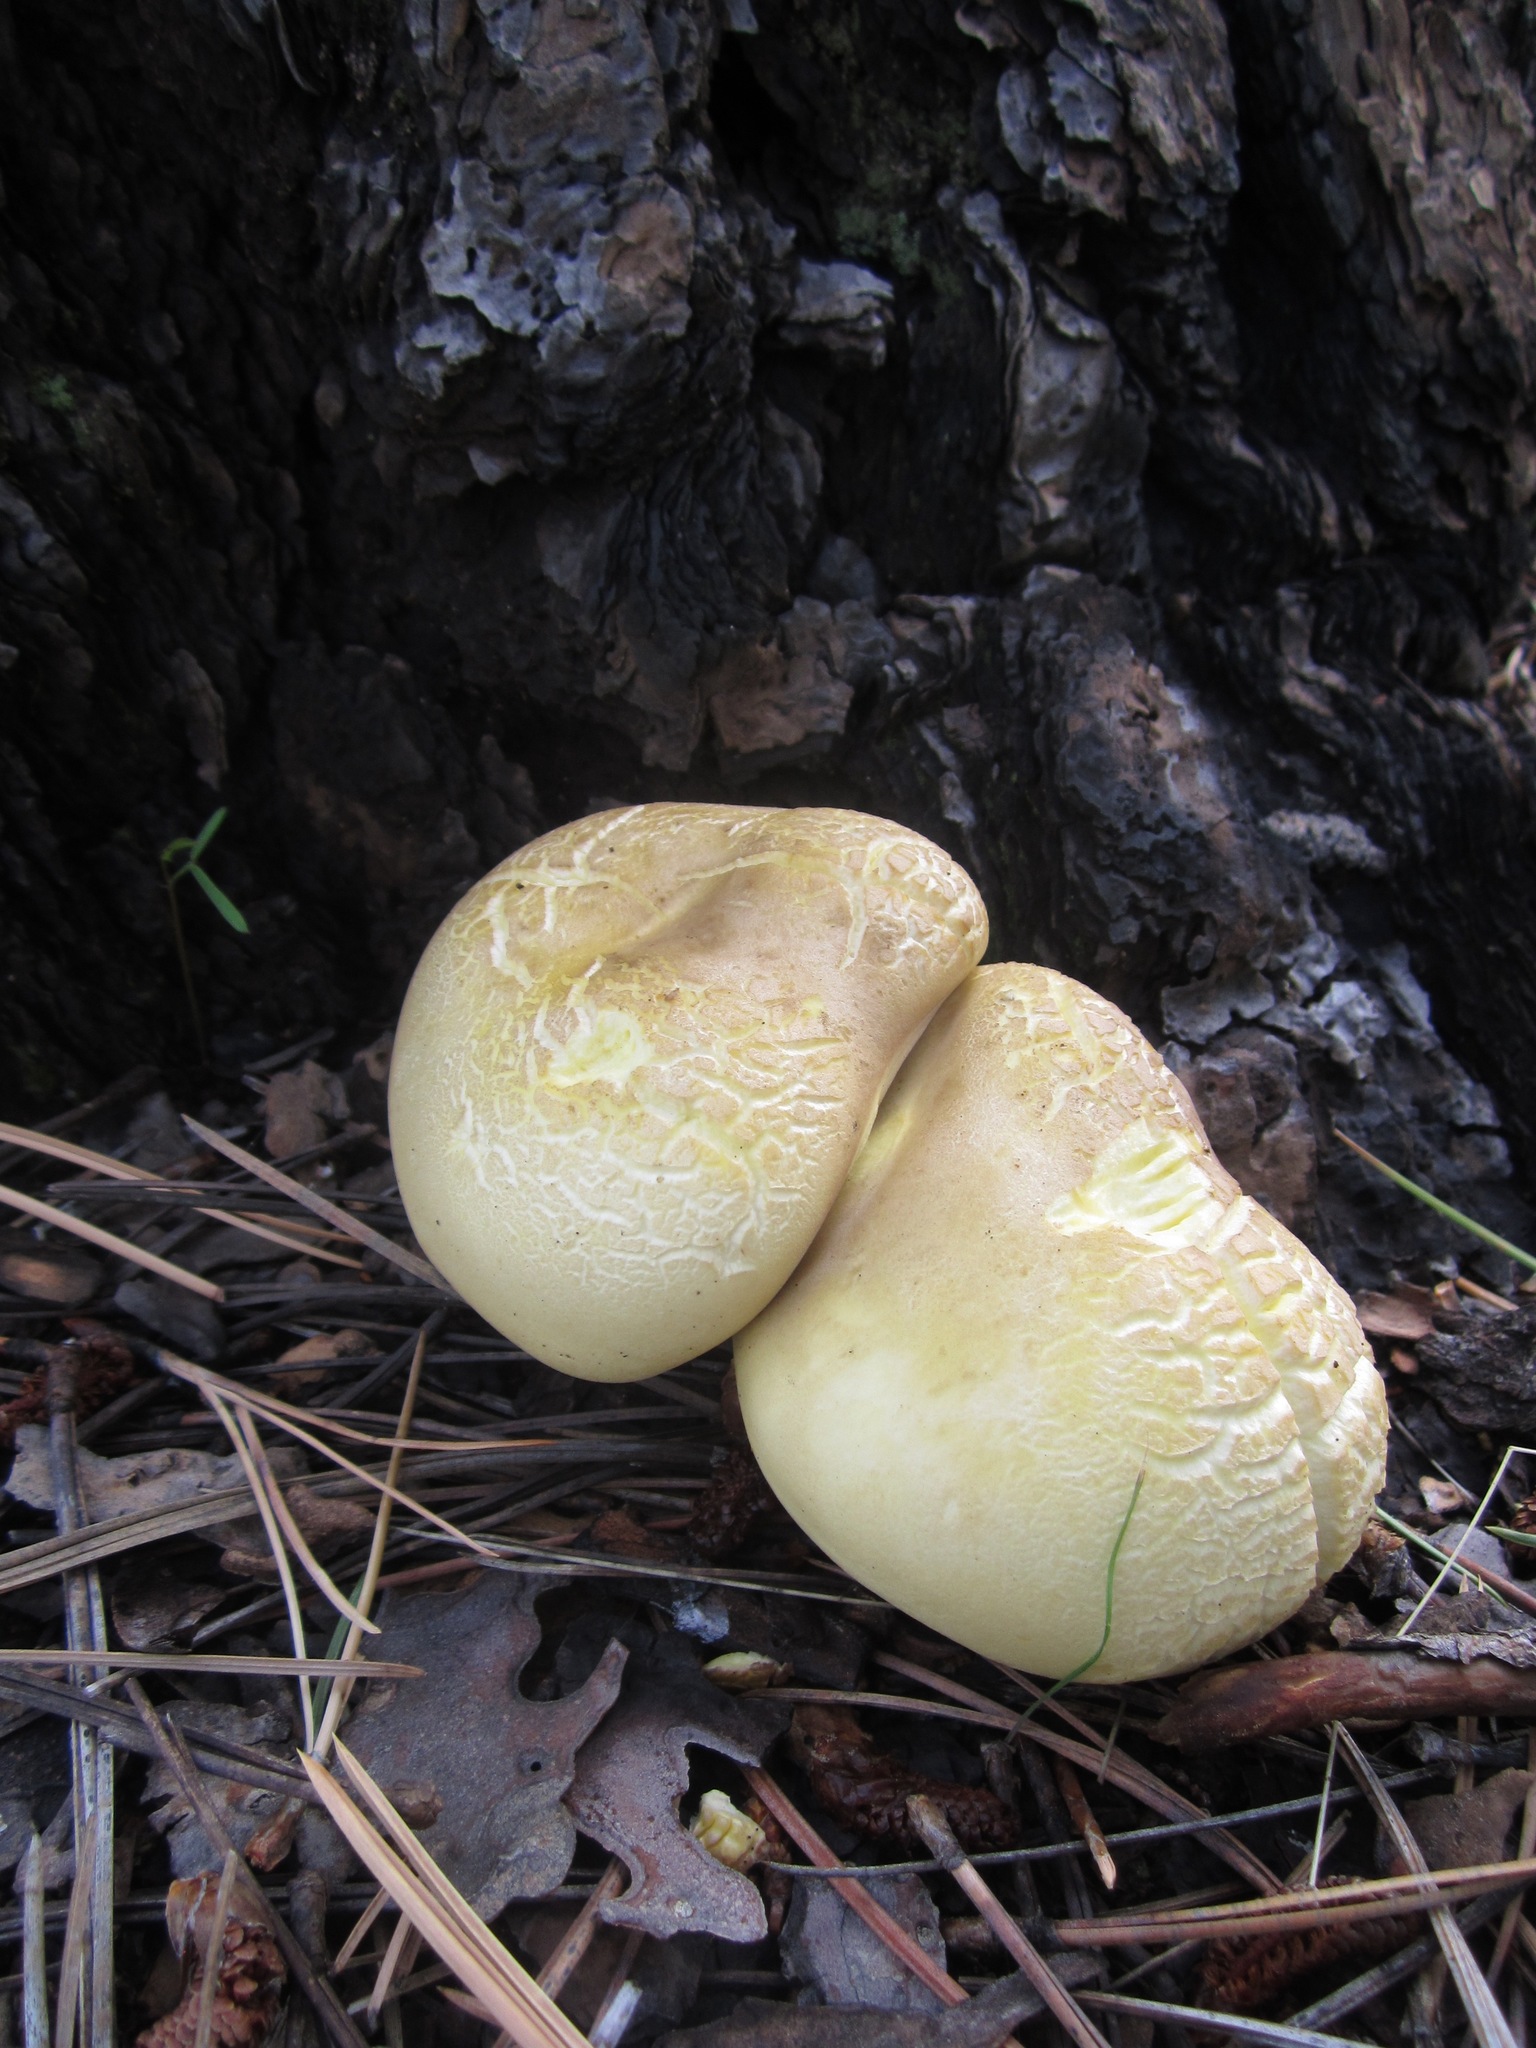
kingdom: Fungi
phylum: Basidiomycota
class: Agaricomycetes
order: Agaricales
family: Hygrophoraceae
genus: Cantharocybe
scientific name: Cantharocybe gruberi
